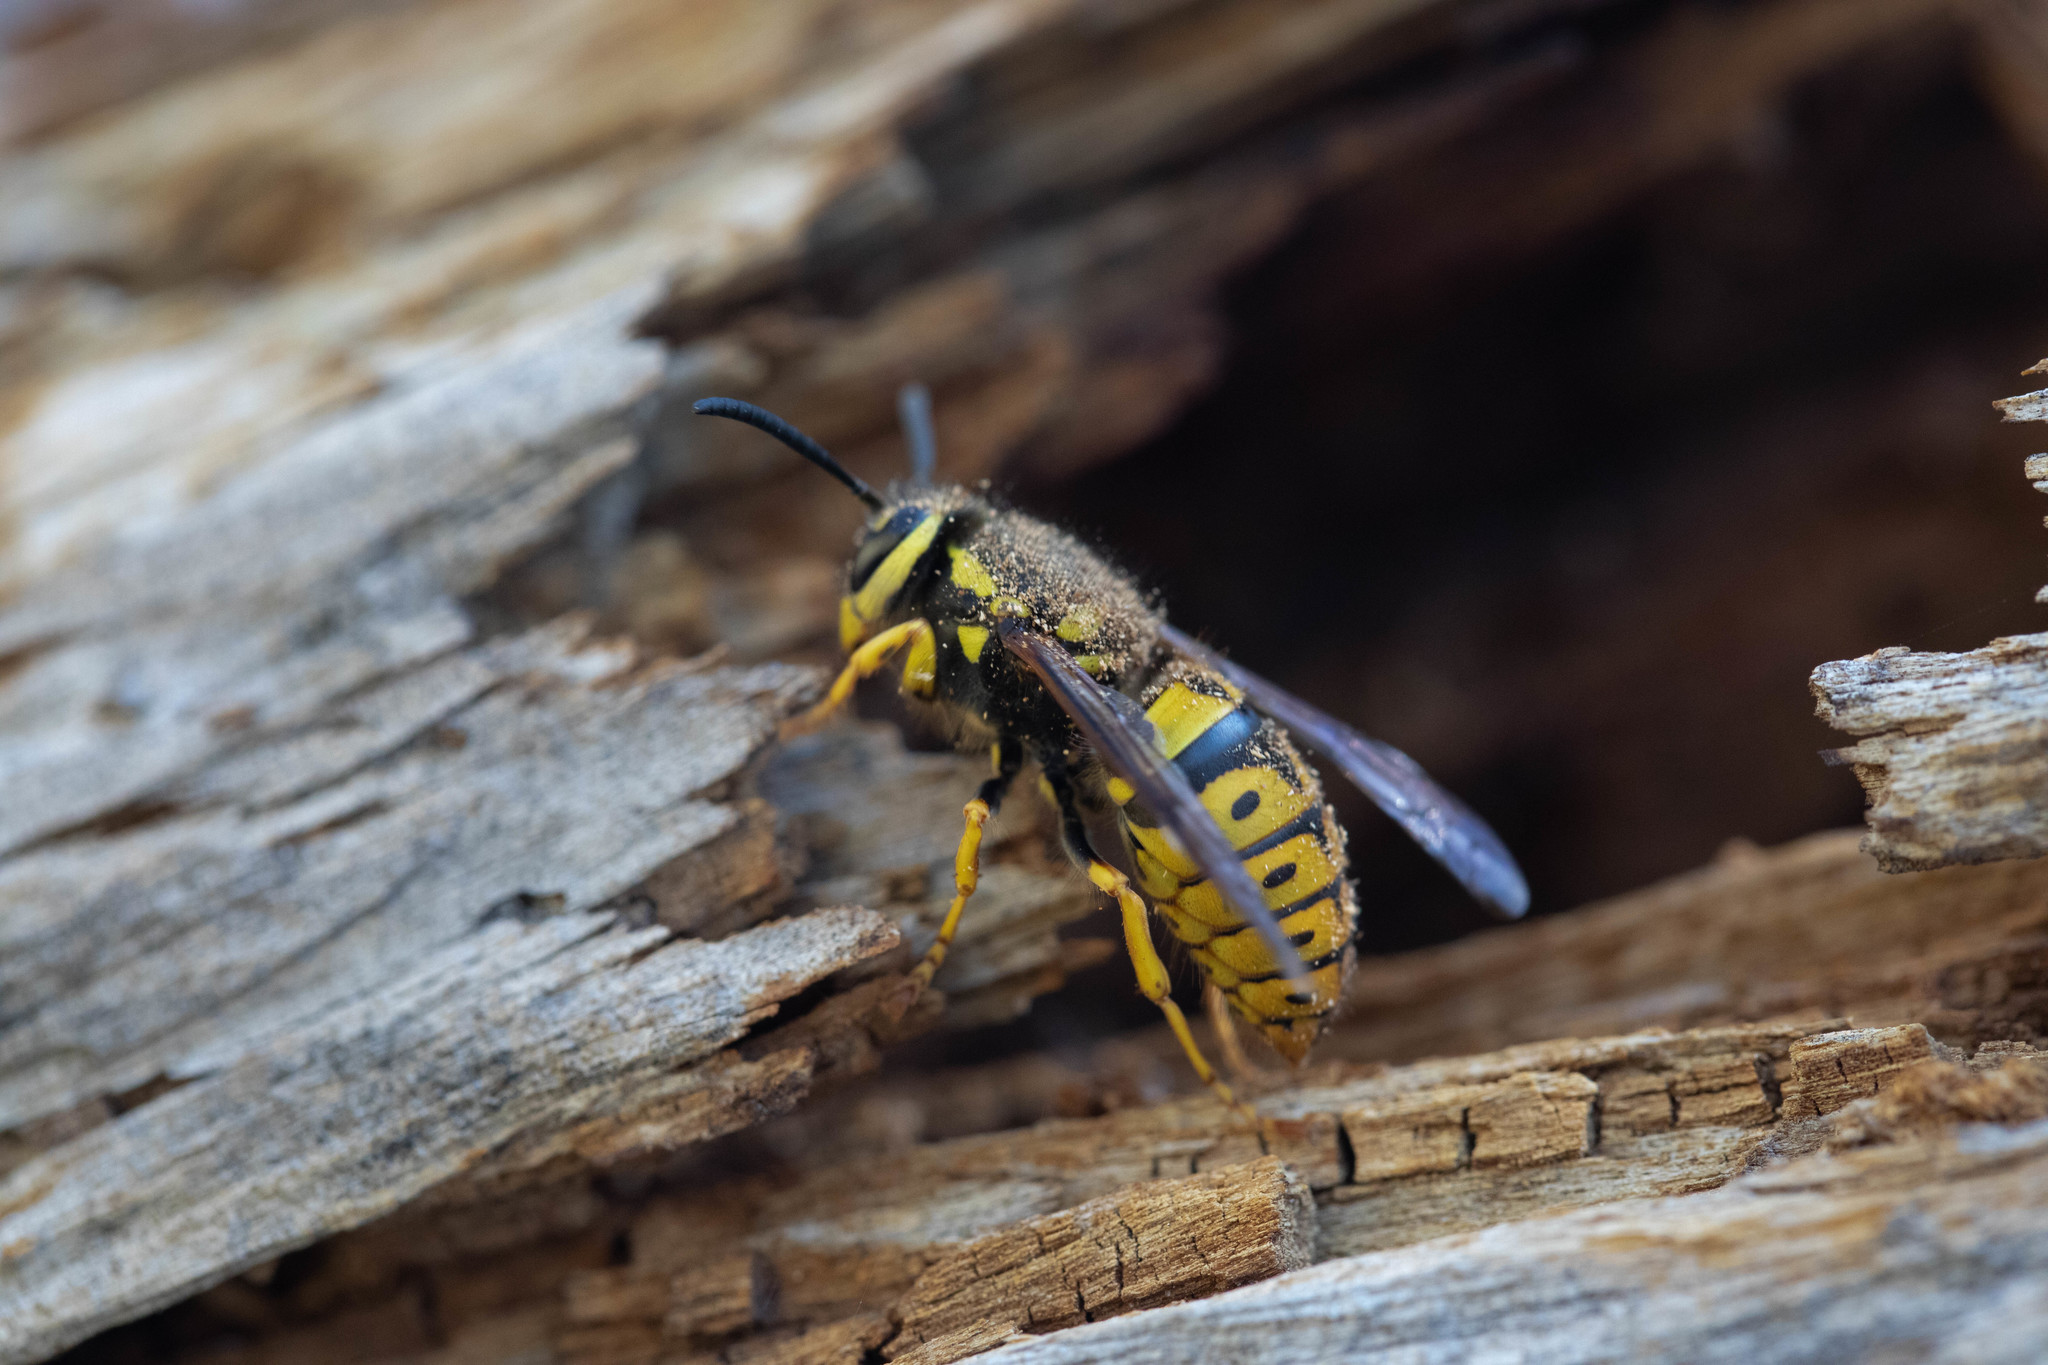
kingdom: Animalia
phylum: Arthropoda
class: Insecta
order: Hymenoptera
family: Vespidae
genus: Vespula
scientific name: Vespula pensylvanica
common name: Western yellowjacket
